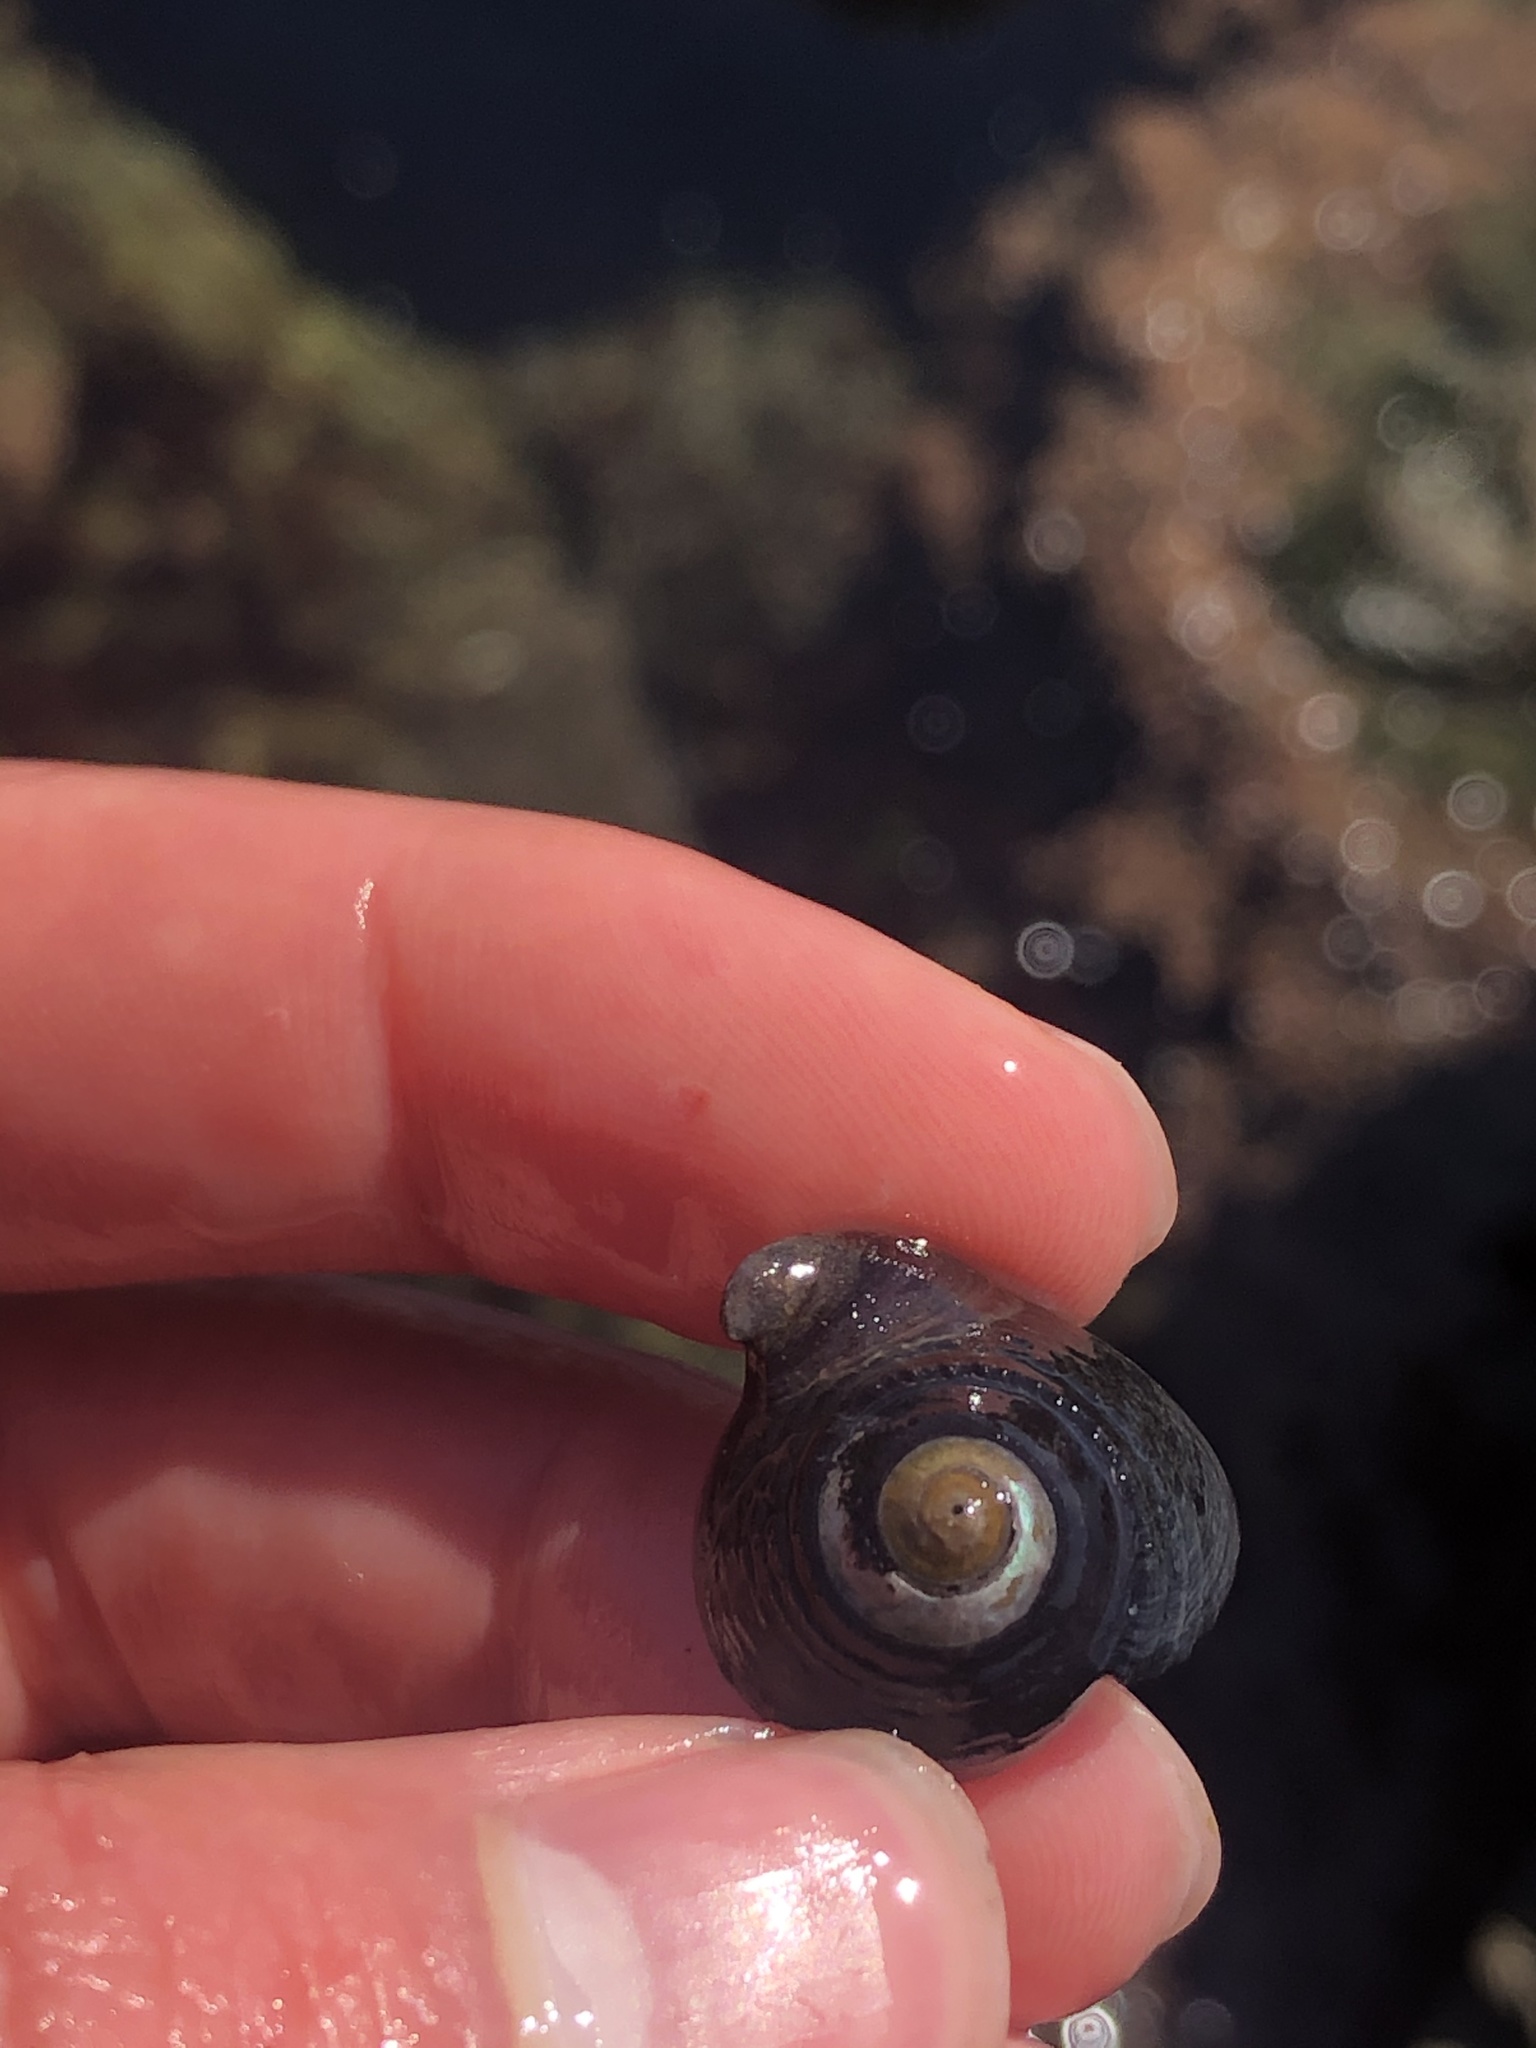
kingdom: Animalia
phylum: Mollusca
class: Gastropoda
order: Trochida
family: Tegulidae
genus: Tegula
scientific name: Tegula funebralis
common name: Black tegula
